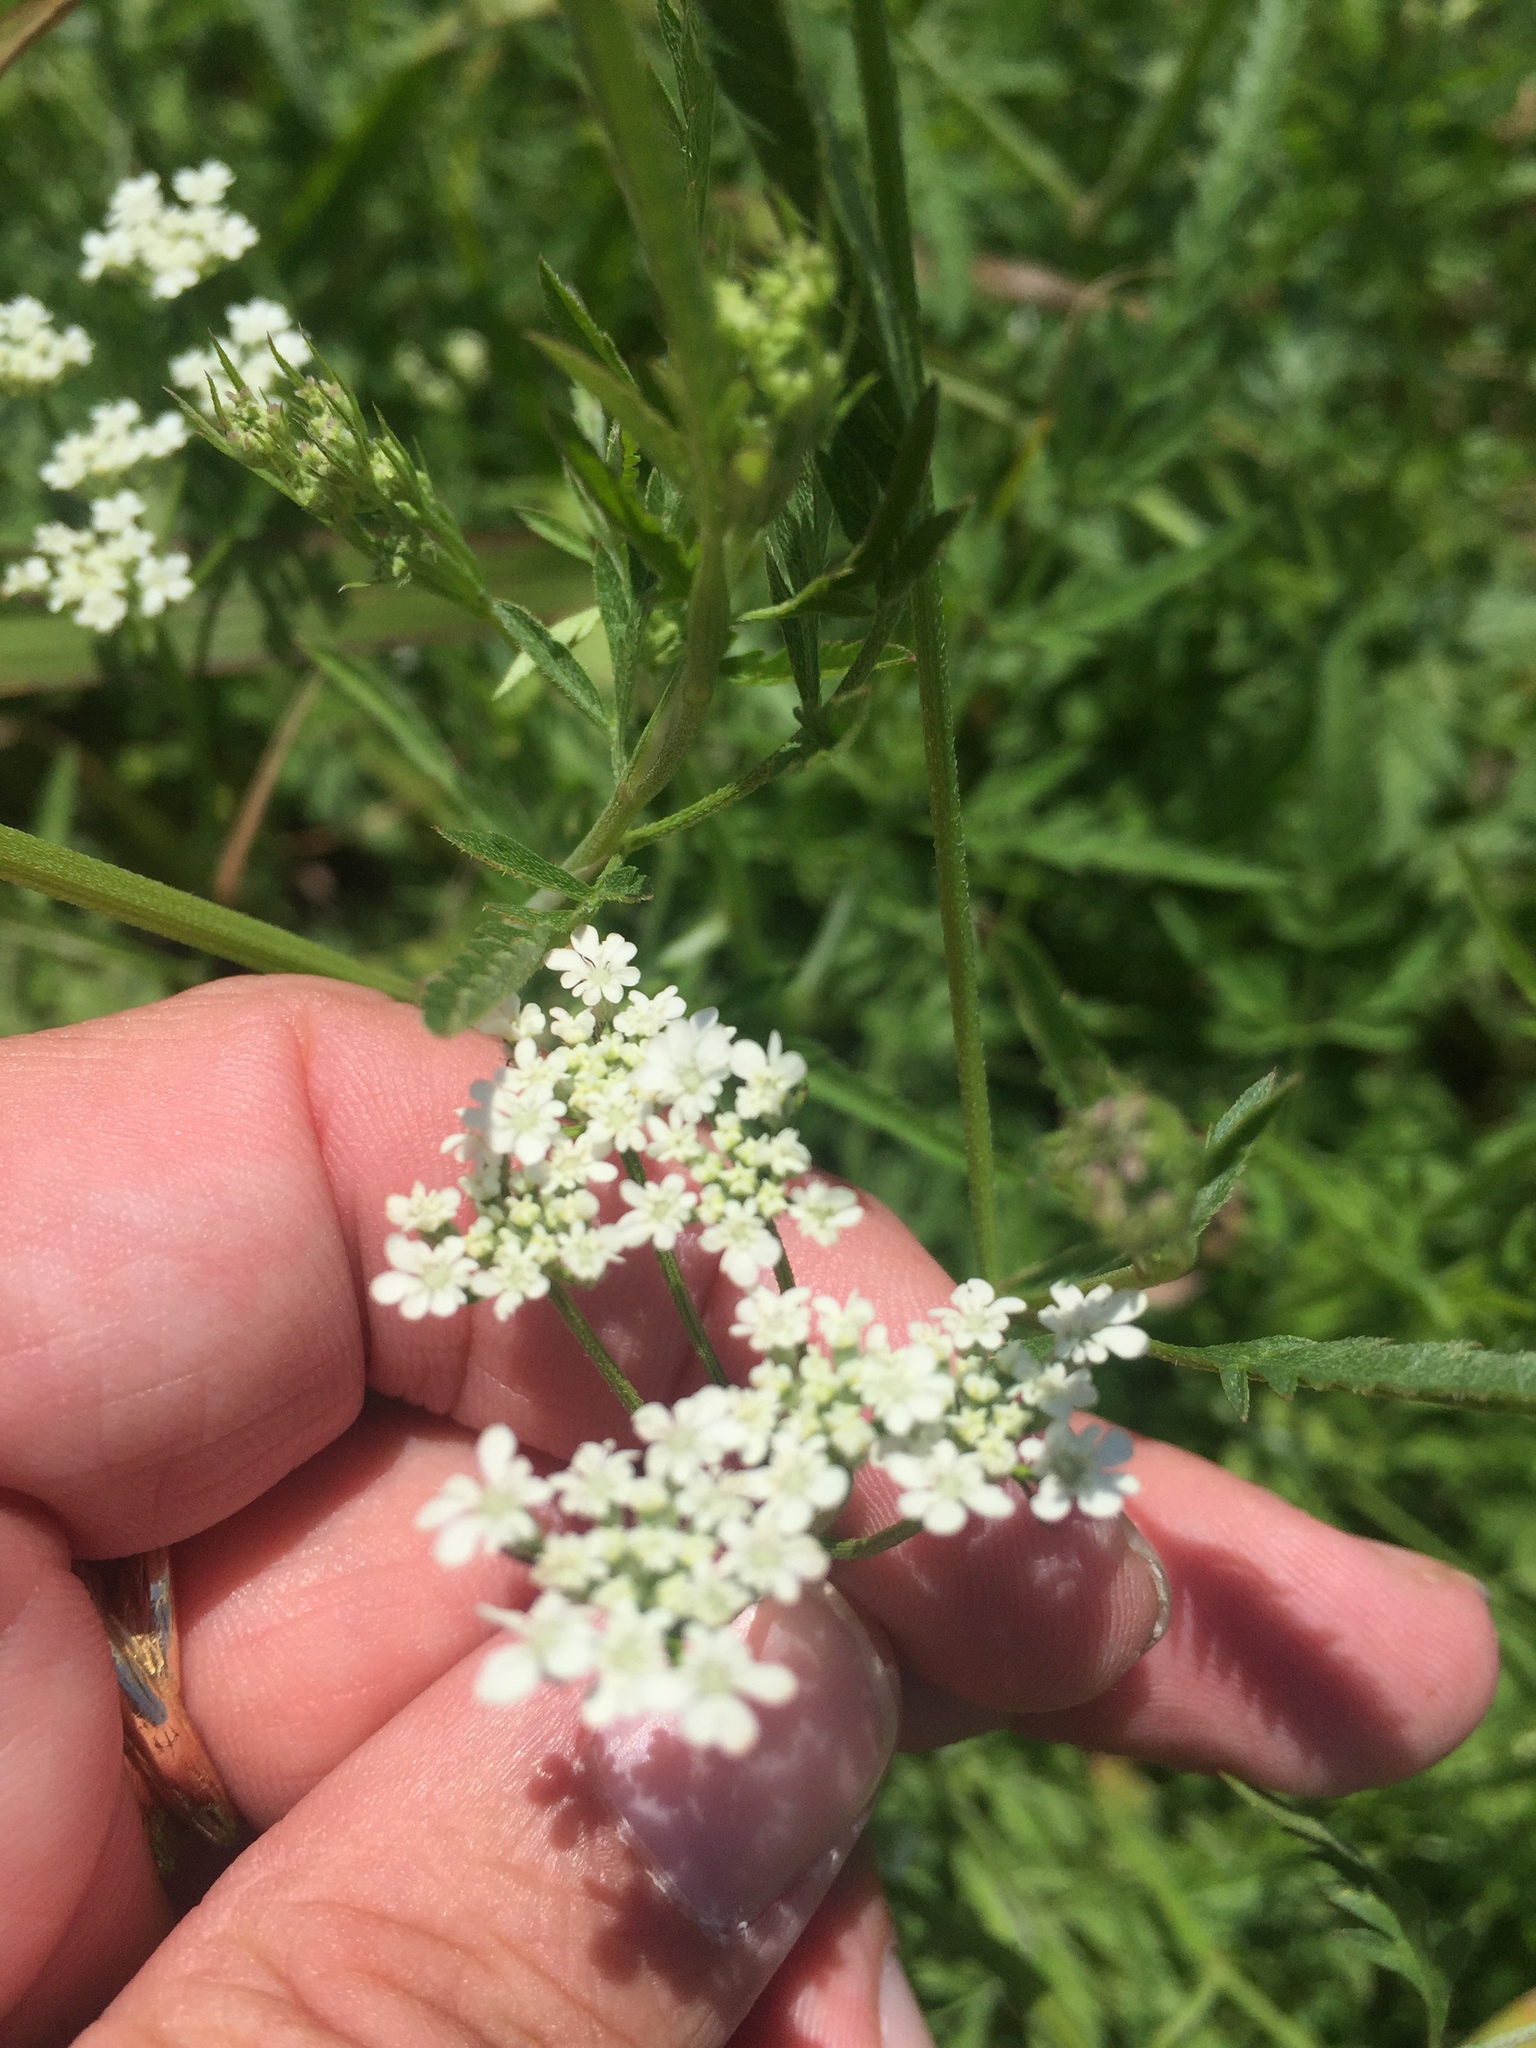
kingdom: Plantae
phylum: Tracheophyta
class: Magnoliopsida
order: Apiales
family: Apiaceae
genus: Torilis
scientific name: Torilis arvensis
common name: Spreading hedge-parsley
